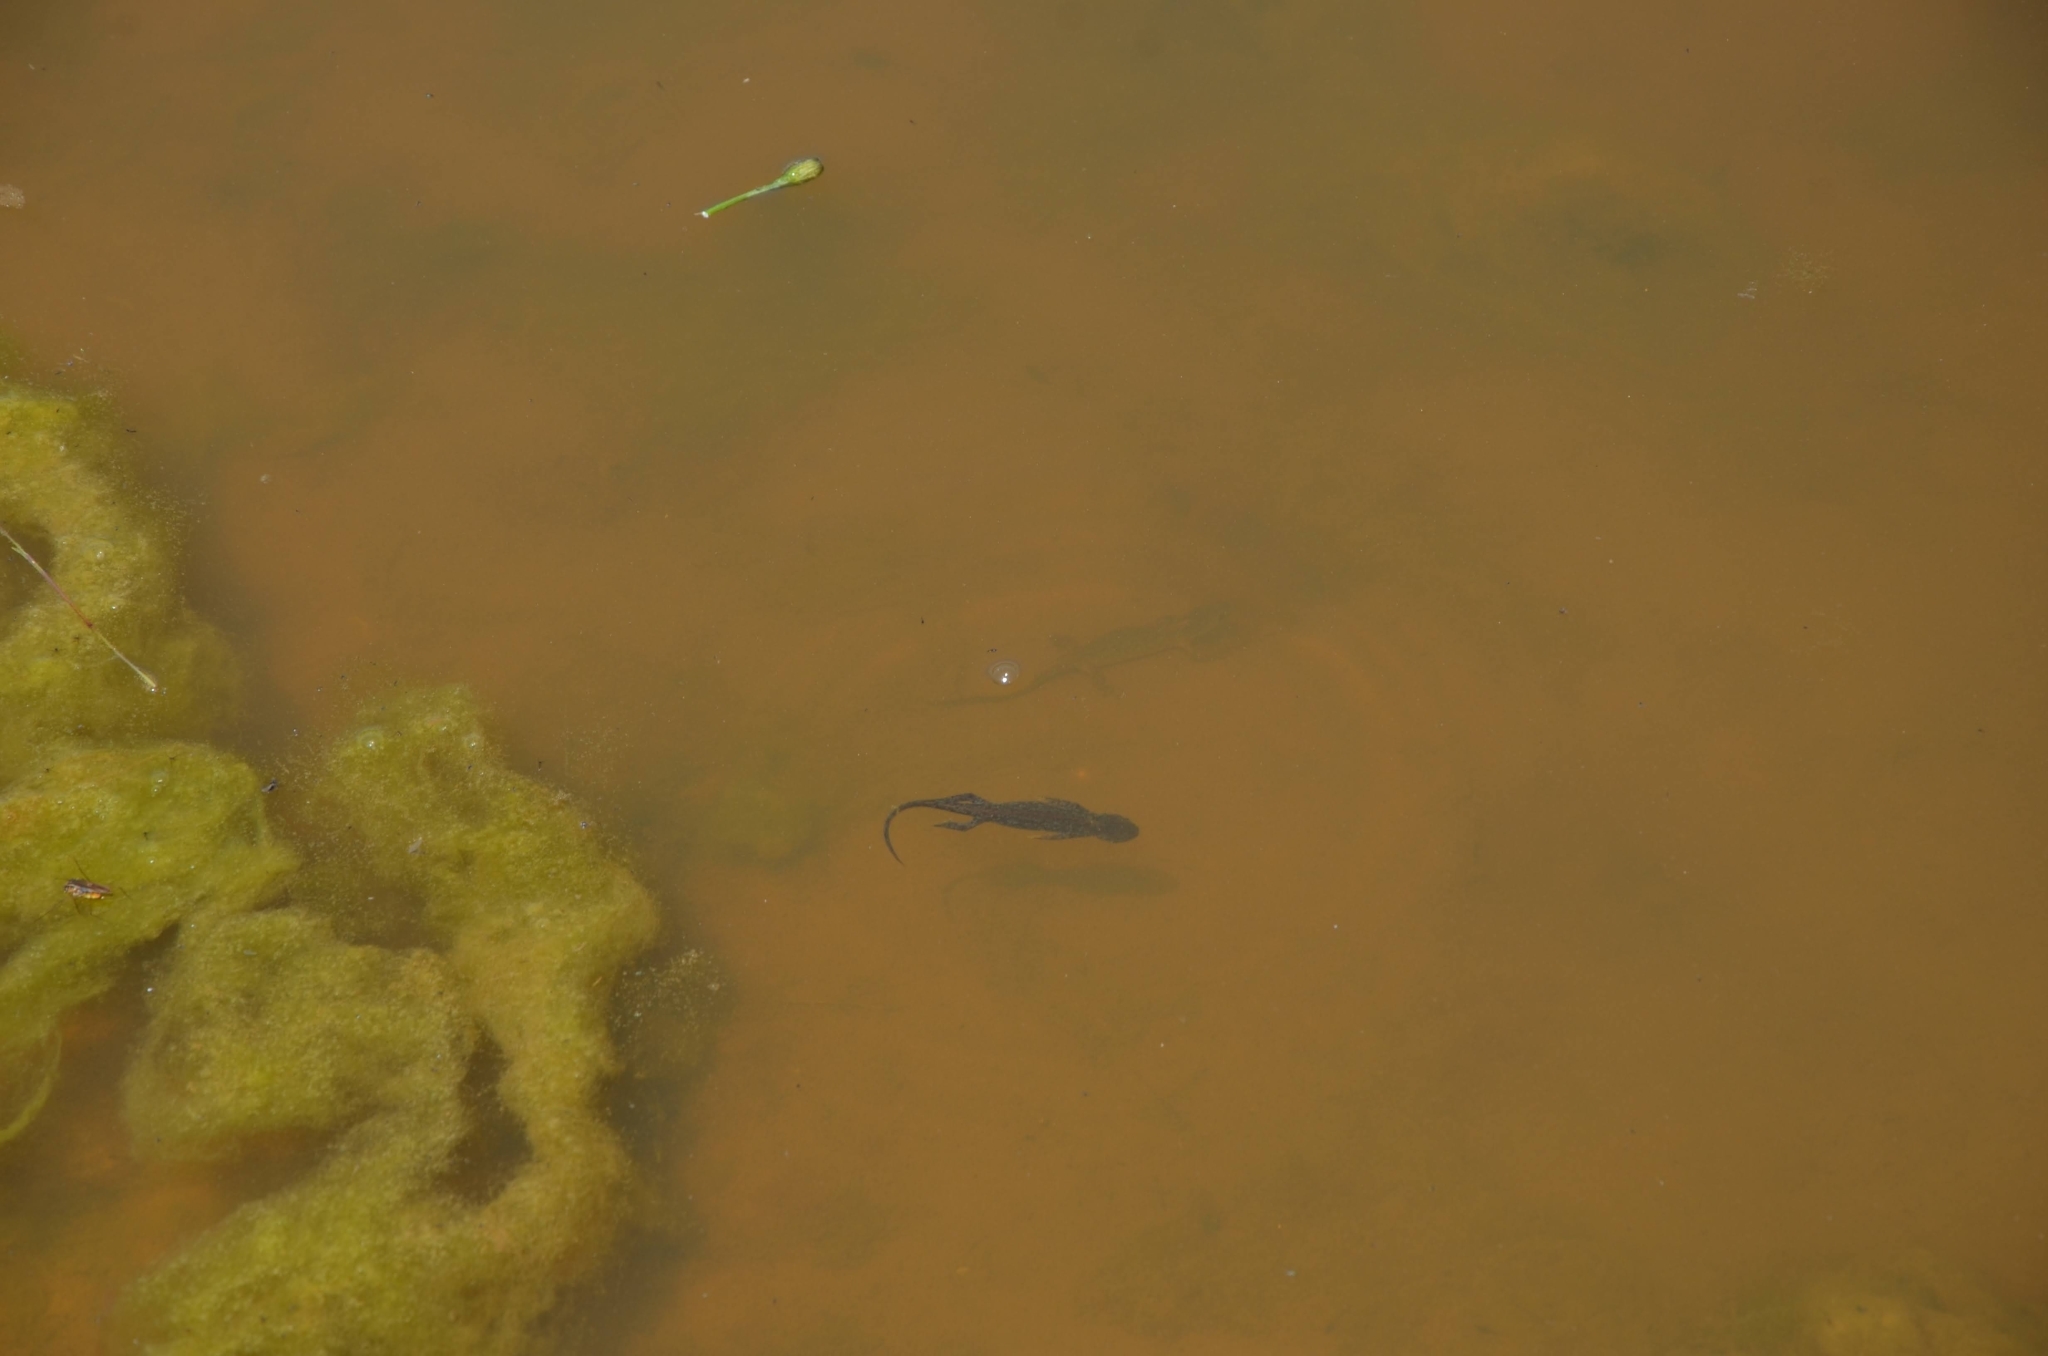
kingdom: Animalia
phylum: Chordata
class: Amphibia
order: Caudata
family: Salamandridae
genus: Ichthyosaura
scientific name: Ichthyosaura alpestris
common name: Alpine newt
